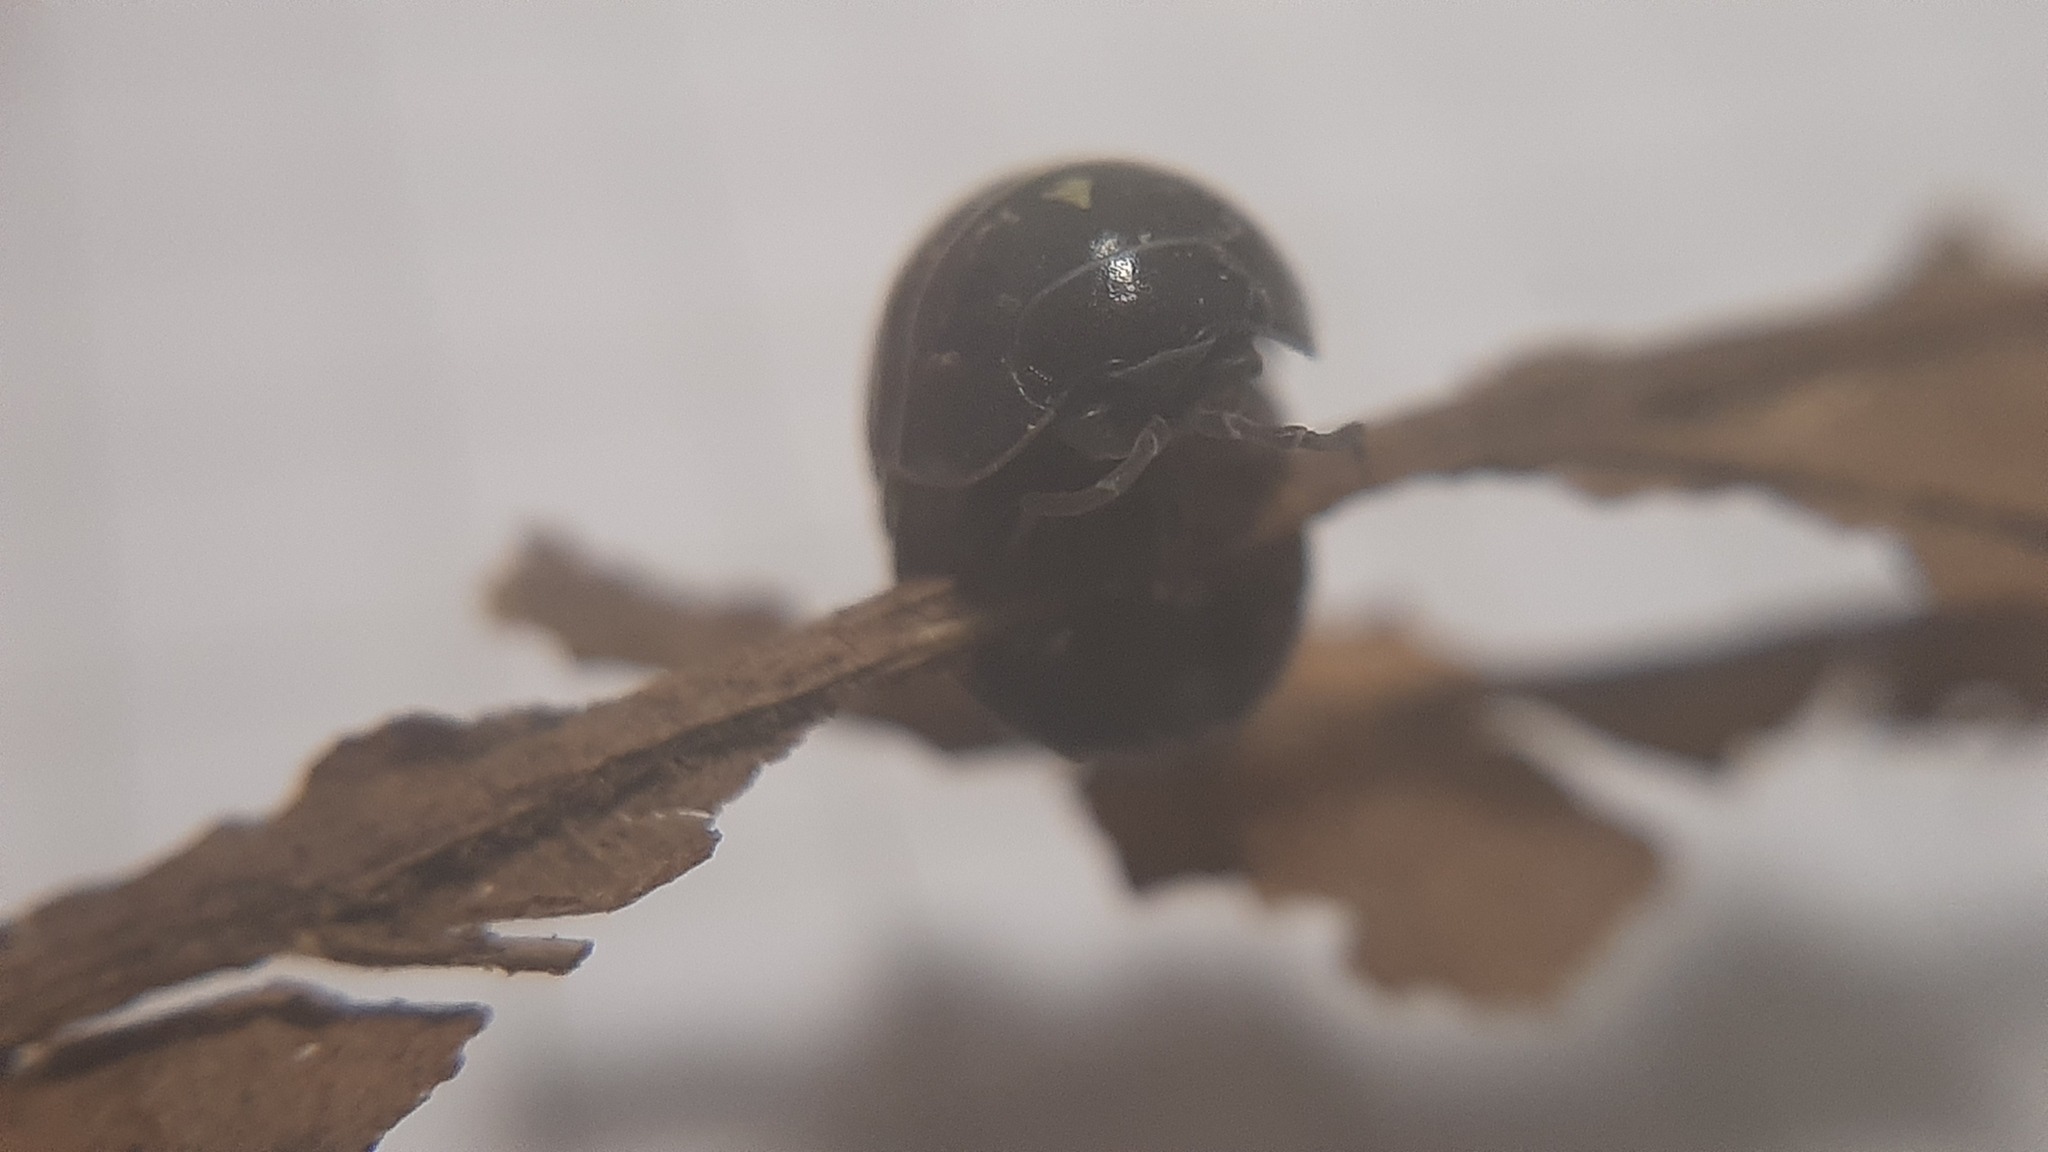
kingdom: Animalia
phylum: Arthropoda
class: Malacostraca
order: Isopoda
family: Armadillidiidae
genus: Armadillidium
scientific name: Armadillidium vulgare
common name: Common pill woodlouse
